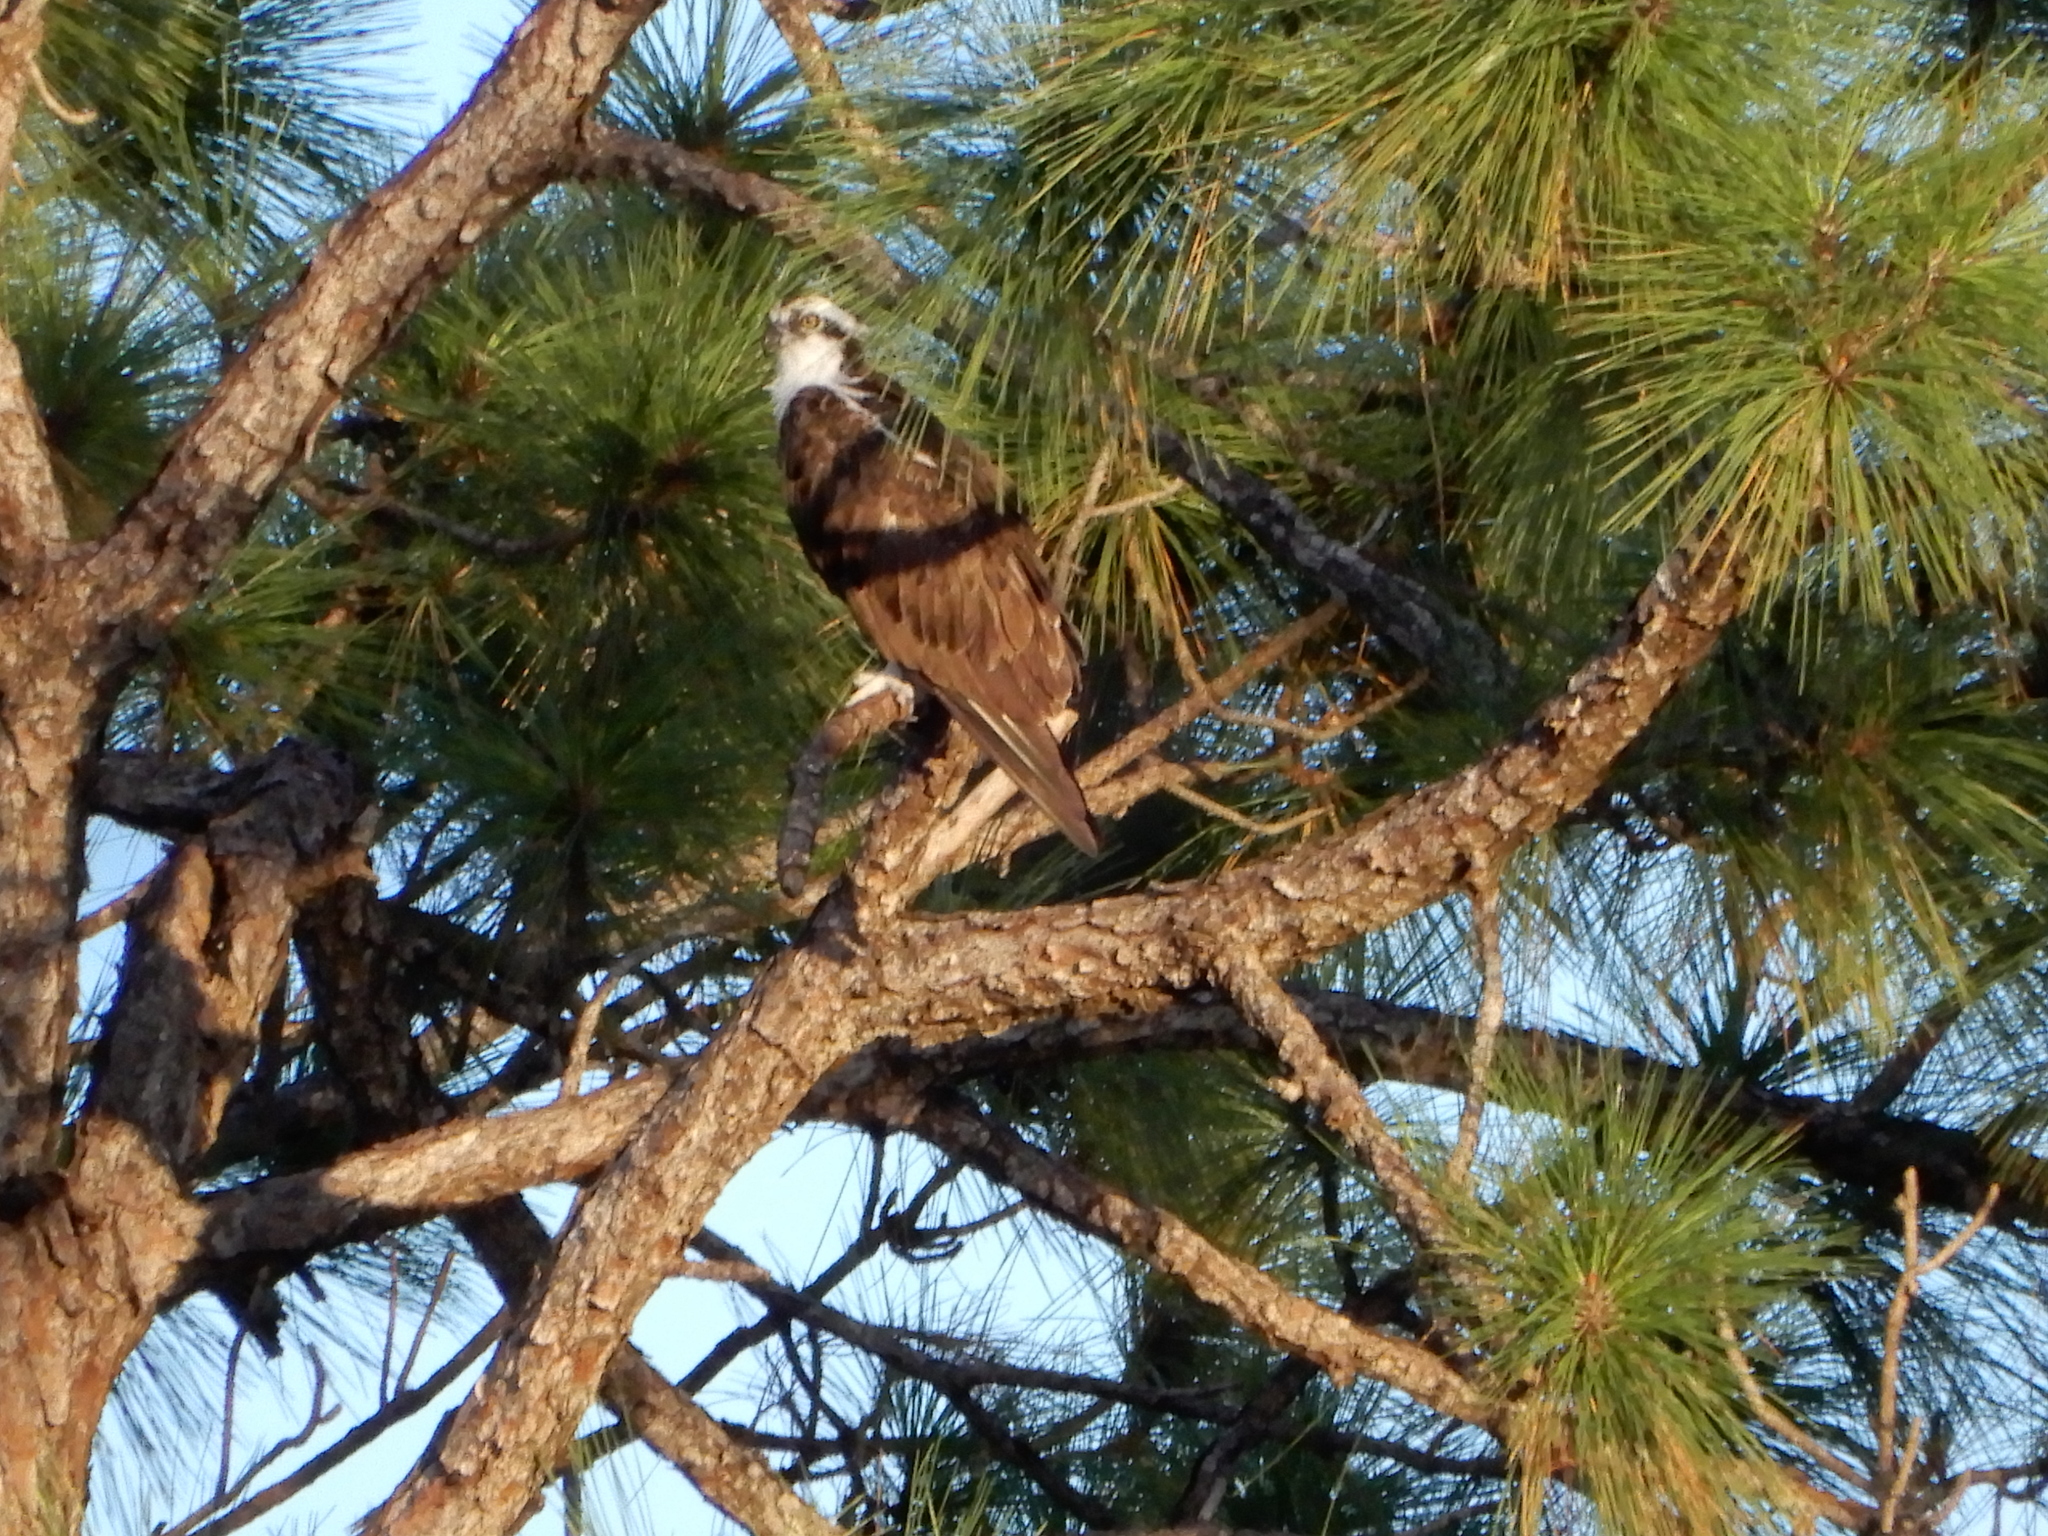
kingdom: Animalia
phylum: Chordata
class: Aves
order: Accipitriformes
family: Pandionidae
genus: Pandion
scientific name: Pandion haliaetus
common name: Osprey
